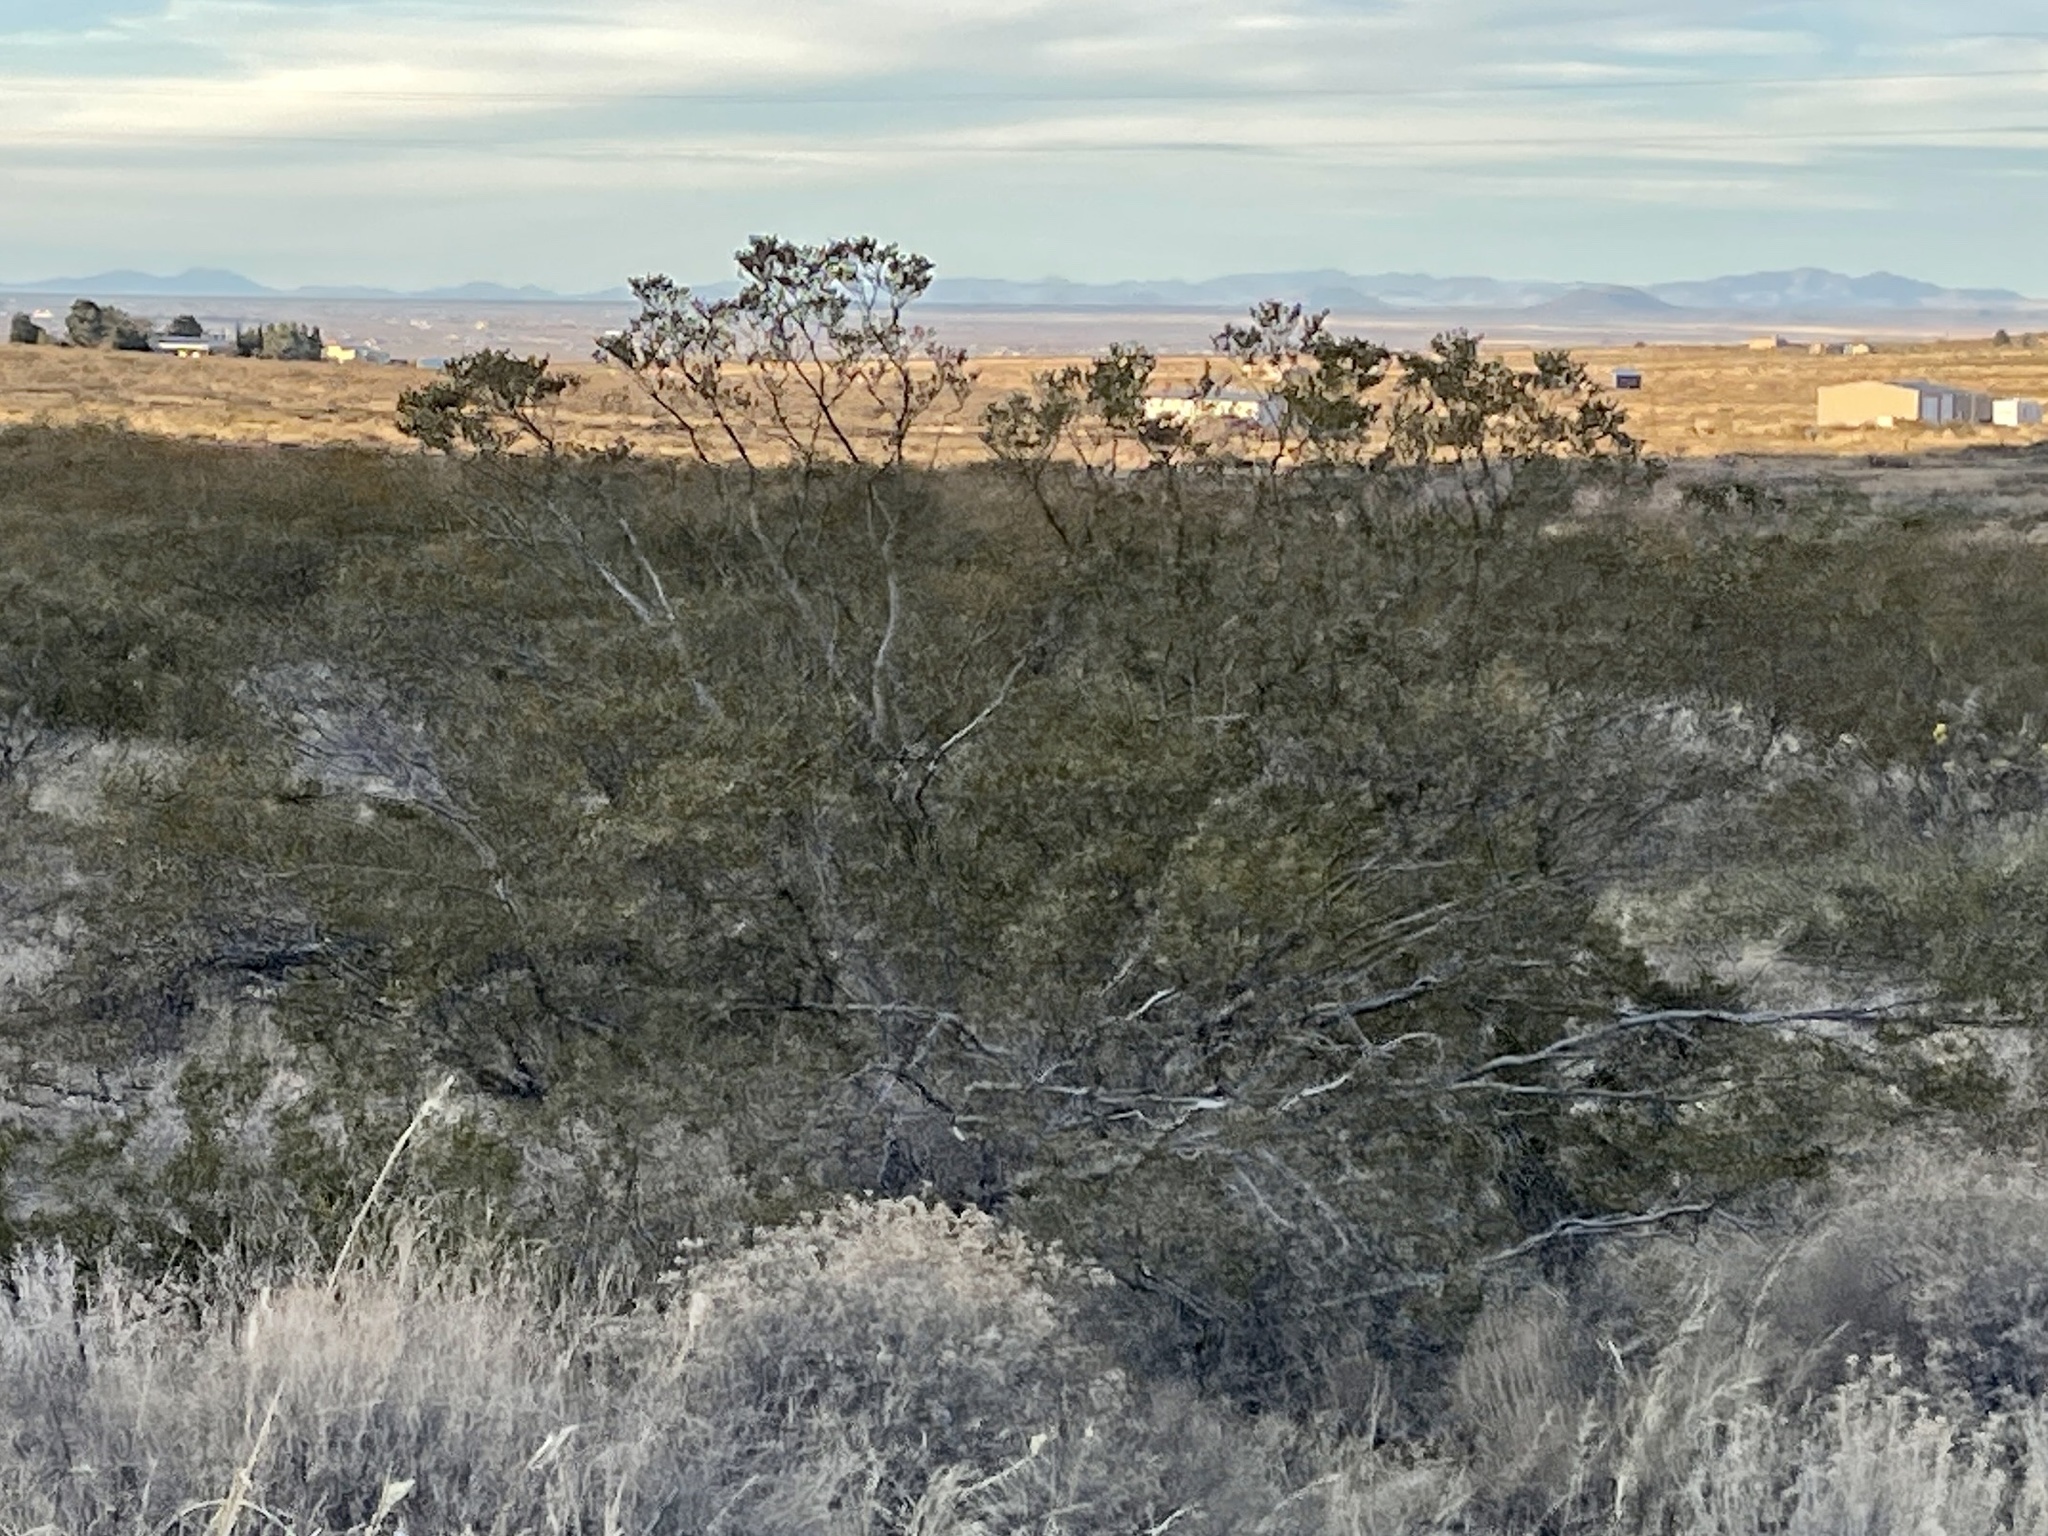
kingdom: Plantae
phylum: Tracheophyta
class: Magnoliopsida
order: Zygophyllales
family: Zygophyllaceae
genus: Larrea
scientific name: Larrea tridentata
